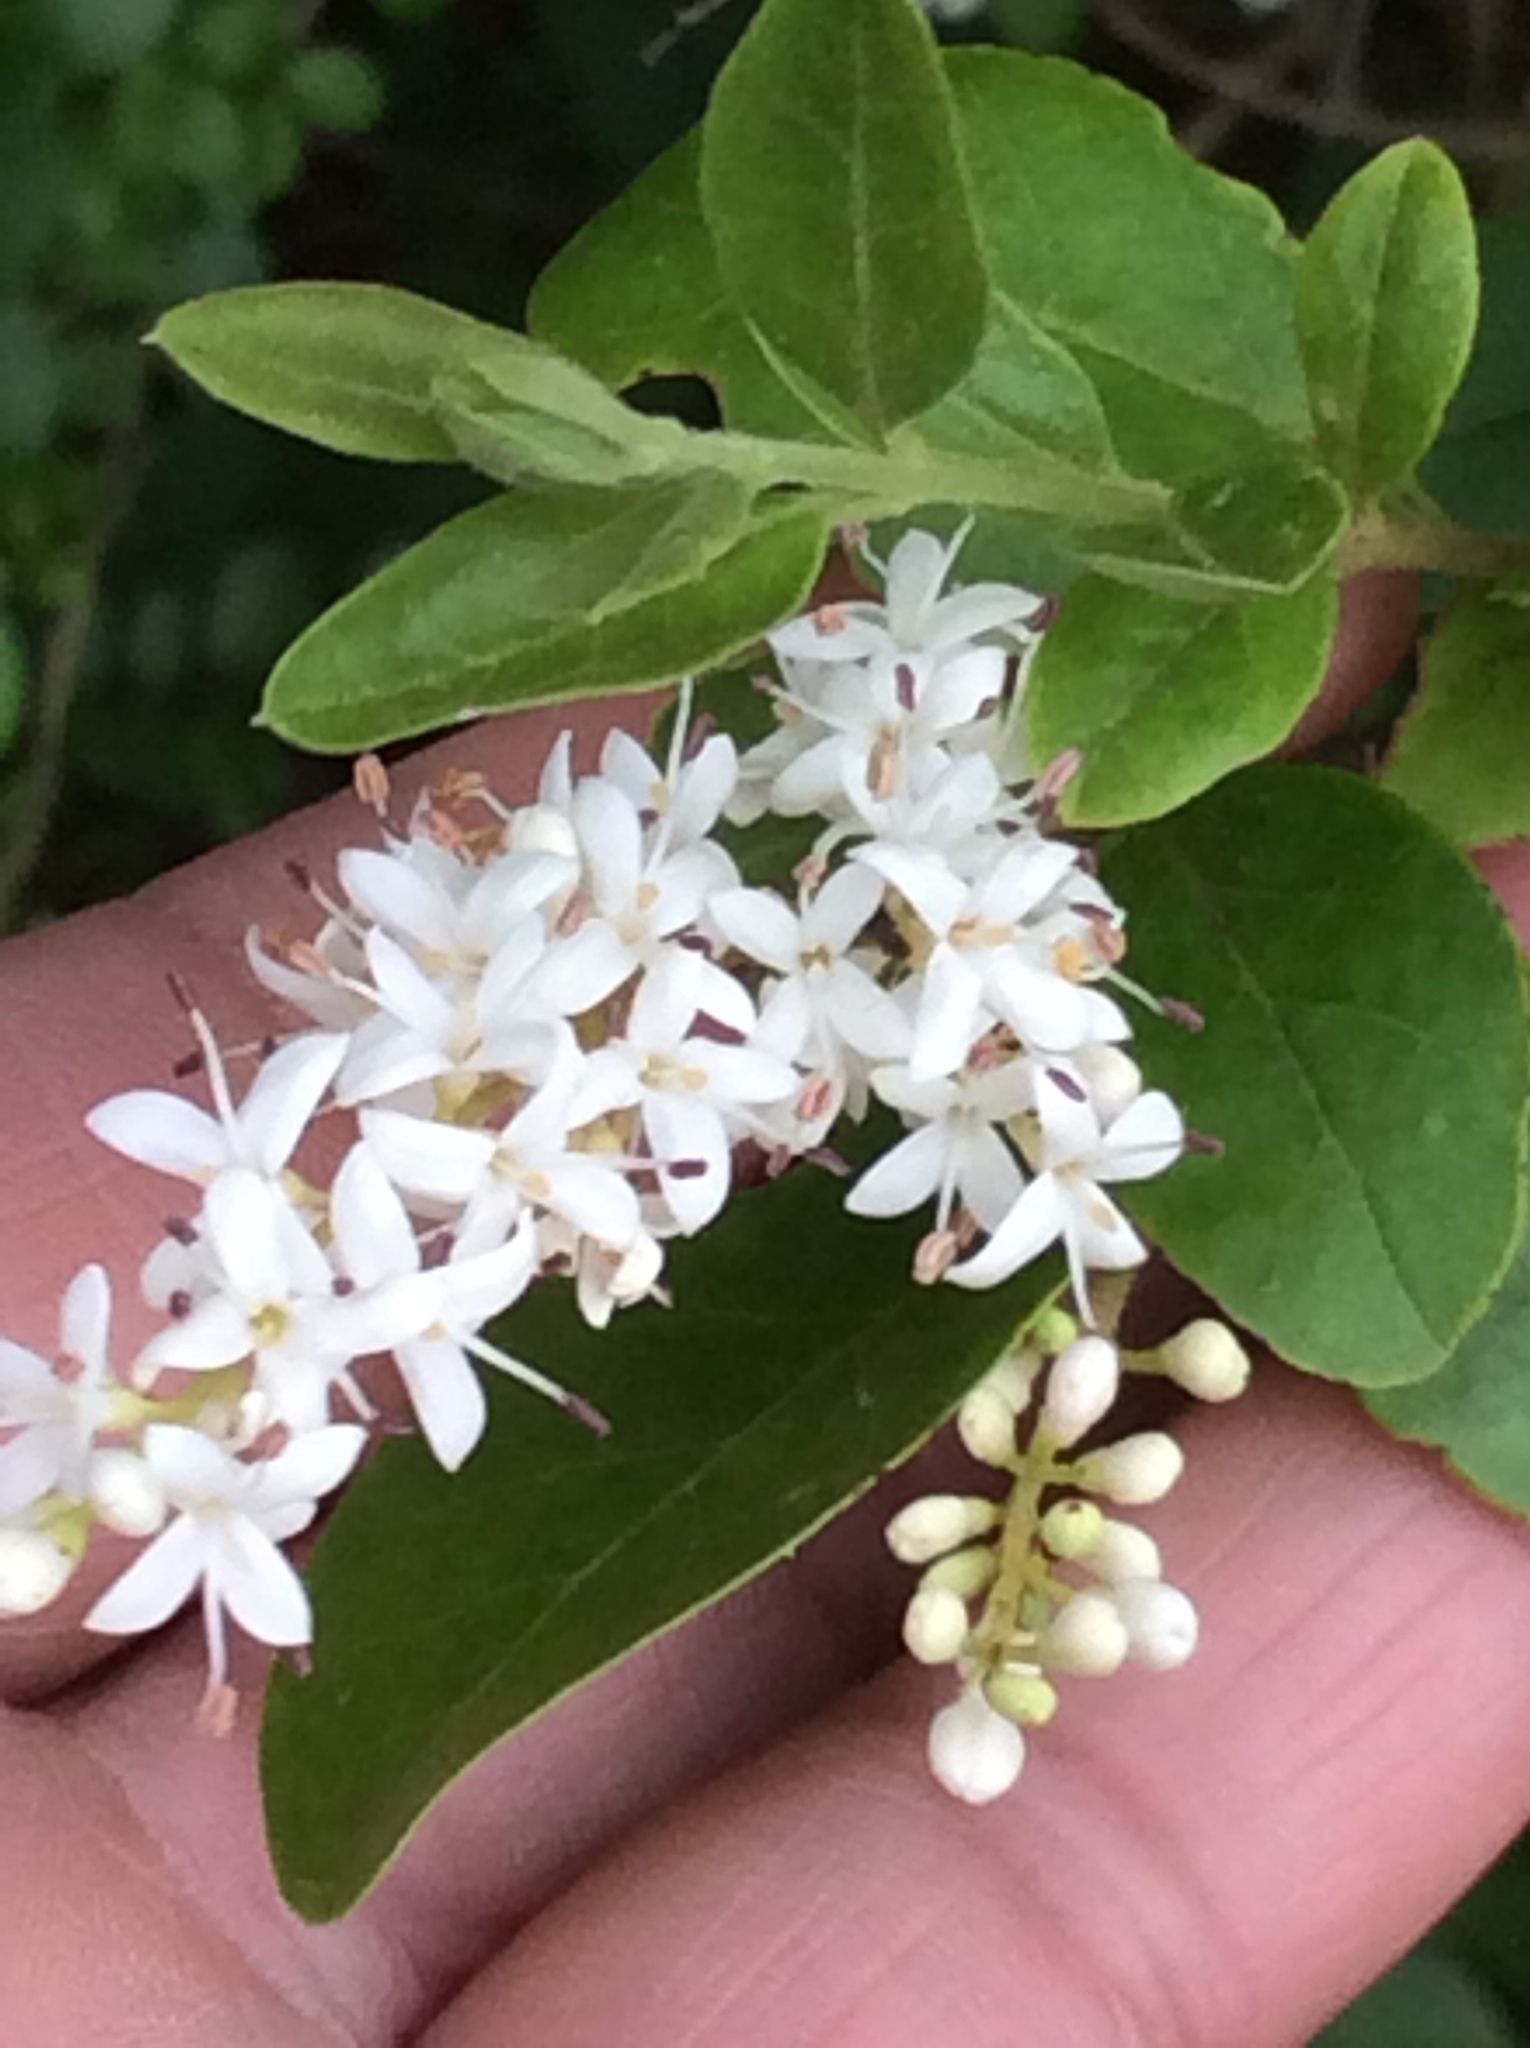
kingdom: Plantae
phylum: Tracheophyta
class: Magnoliopsida
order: Lamiales
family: Oleaceae
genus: Ligustrum
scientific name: Ligustrum sinense
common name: Chinese privet
